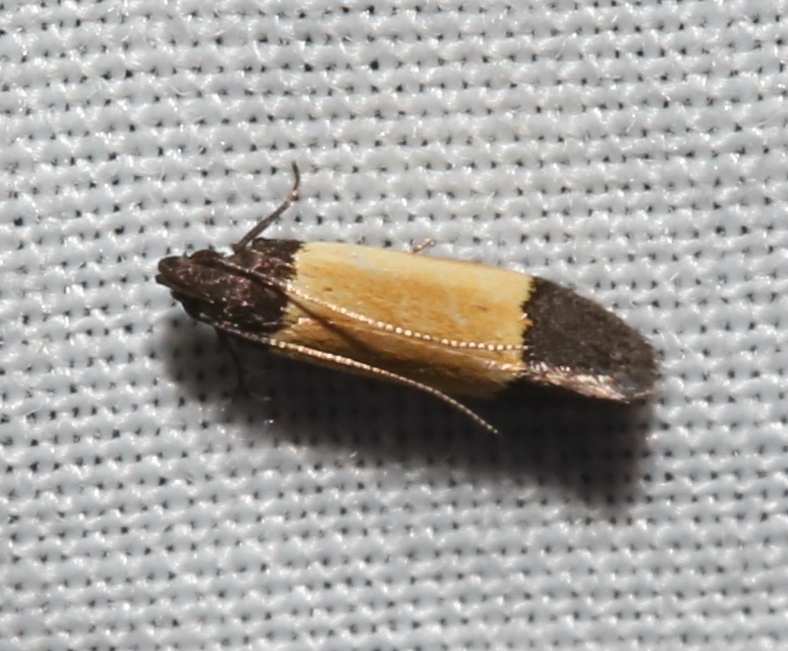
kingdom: Animalia
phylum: Arthropoda
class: Insecta
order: Lepidoptera
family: Gelechiidae
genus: Anacampsis
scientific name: Anacampsis coverdalella
